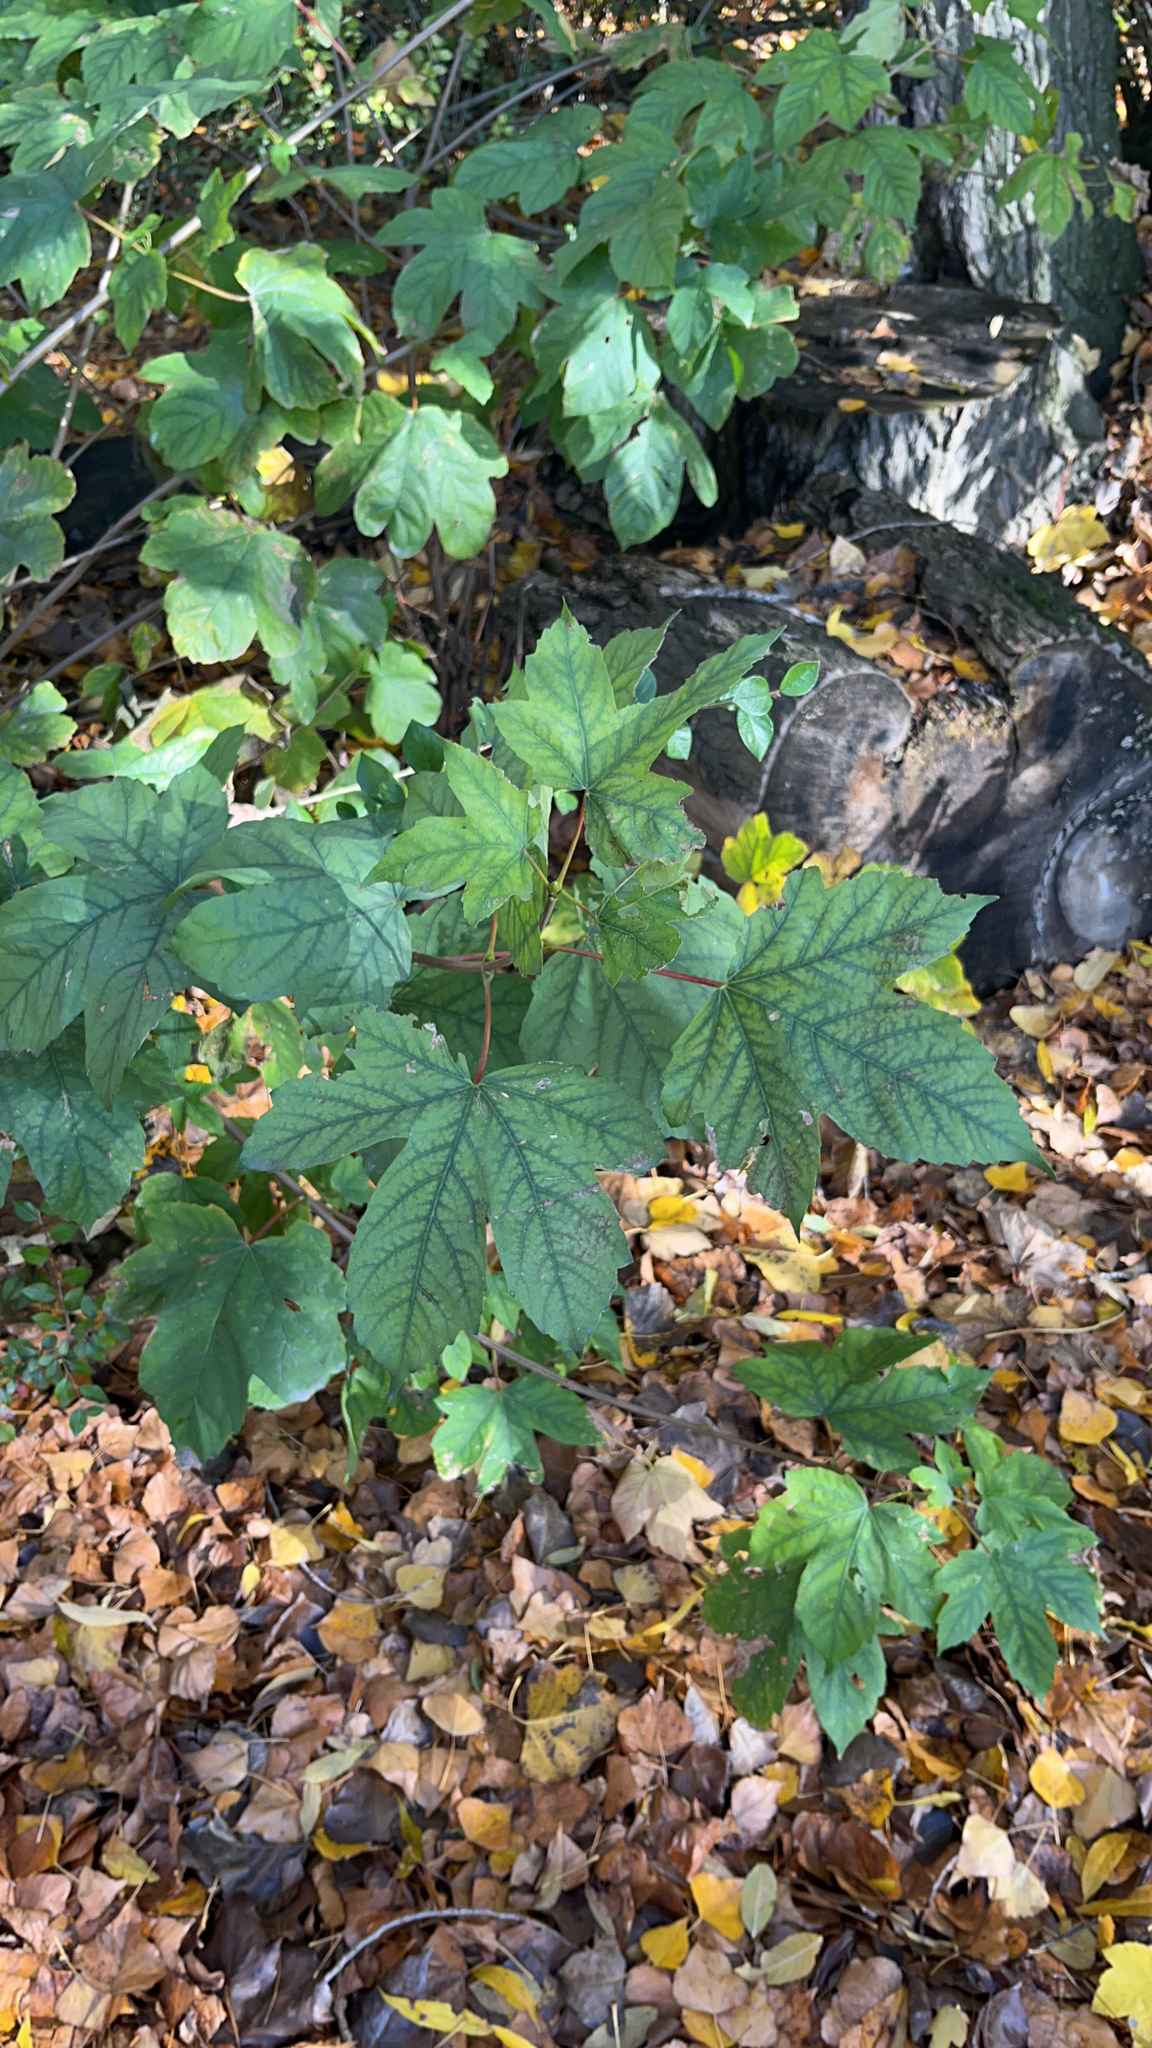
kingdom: Plantae
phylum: Tracheophyta
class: Magnoliopsida
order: Sapindales
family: Sapindaceae
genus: Acer
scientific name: Acer pseudoplatanus
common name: Sycamore
